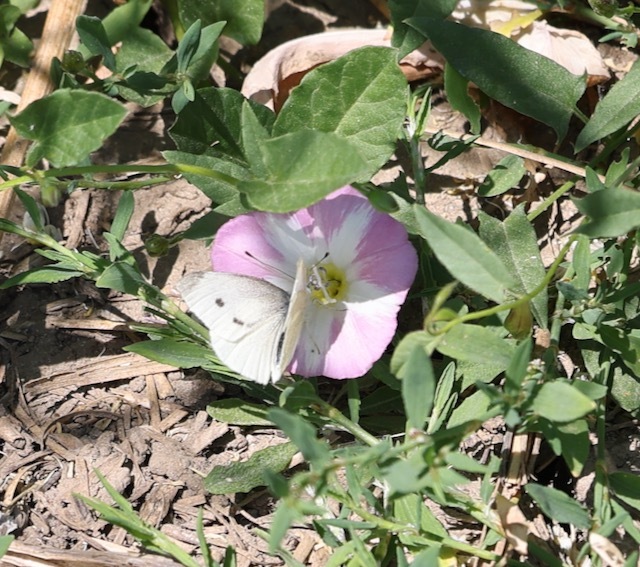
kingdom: Animalia
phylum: Arthropoda
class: Insecta
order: Lepidoptera
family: Pieridae
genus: Pieris
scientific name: Pieris rapae
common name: Small white
